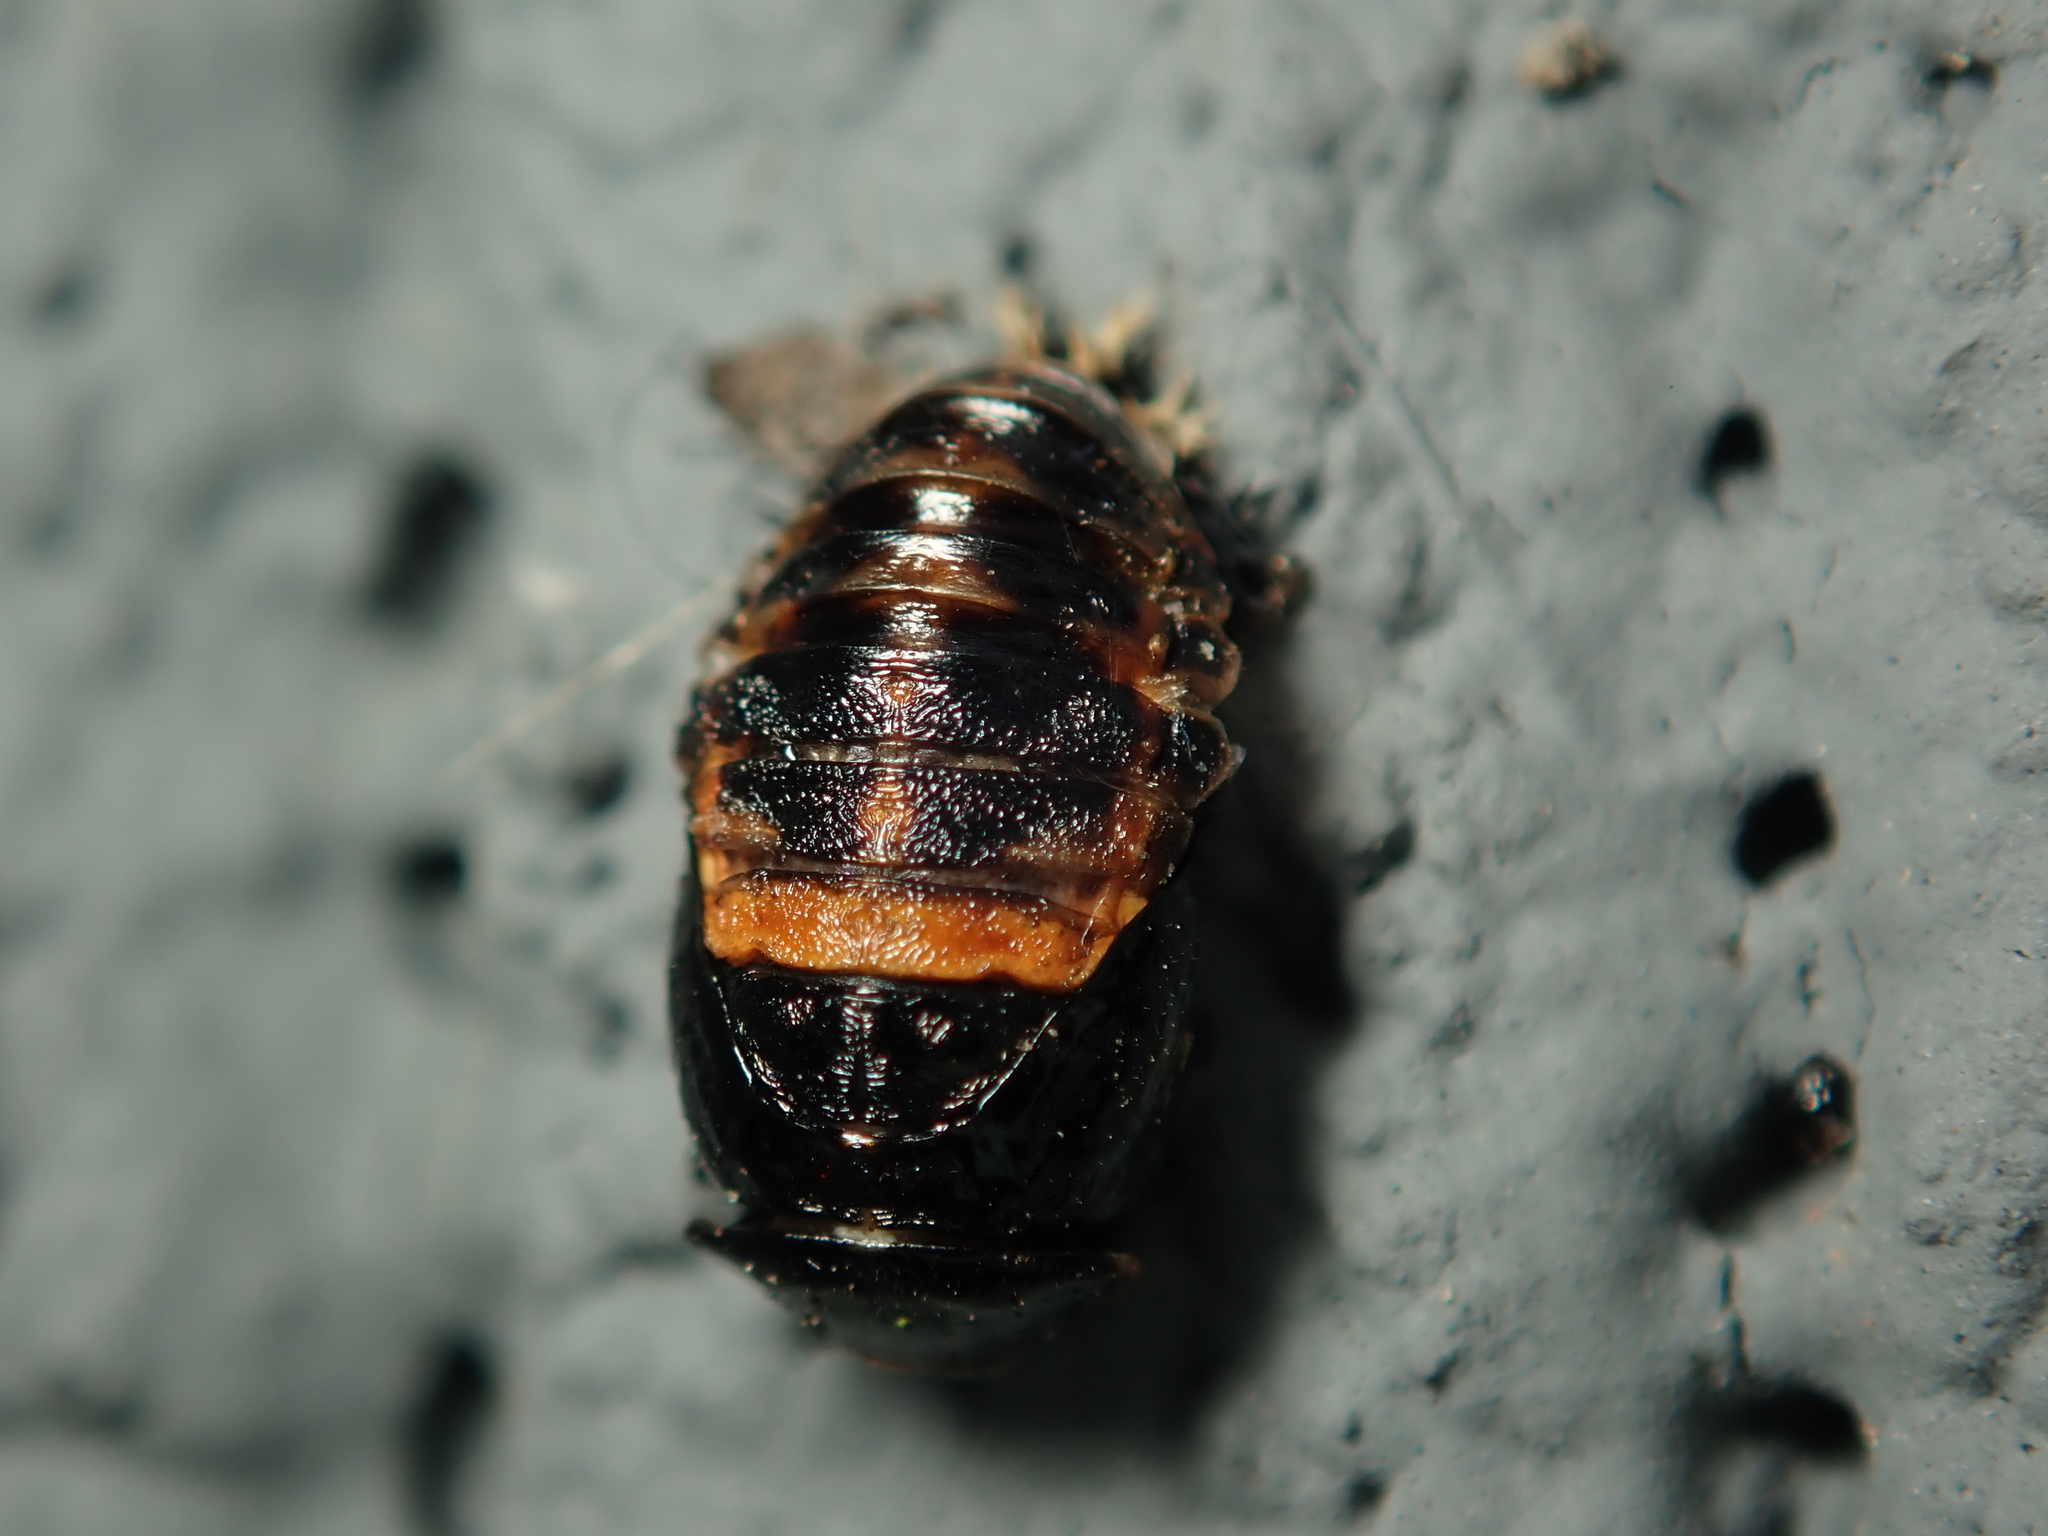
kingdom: Animalia
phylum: Arthropoda
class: Insecta
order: Coleoptera
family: Coccinellidae
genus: Harmonia
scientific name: Harmonia axyridis
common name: Harlequin ladybird
